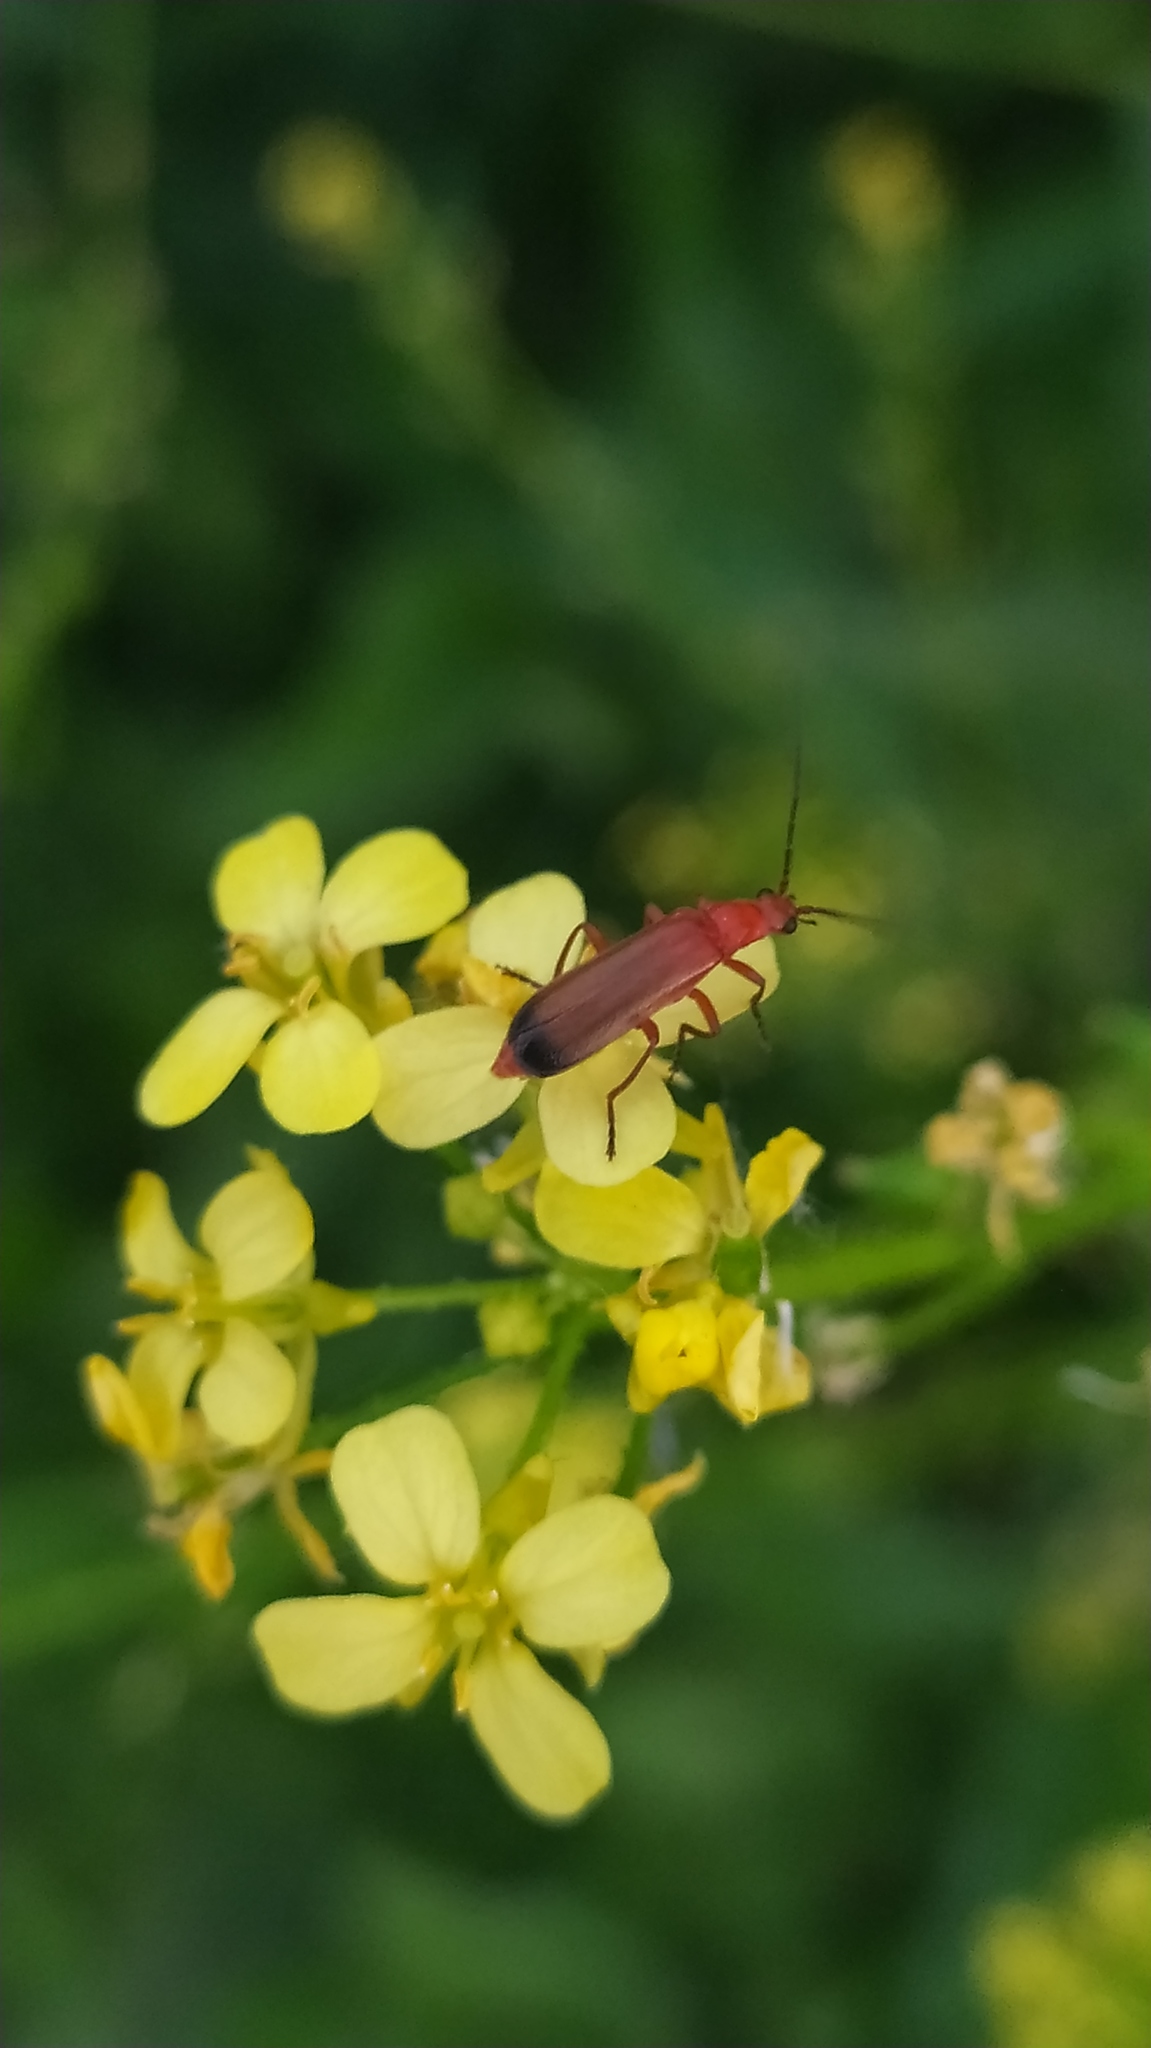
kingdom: Animalia
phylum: Arthropoda
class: Insecta
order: Coleoptera
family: Cantharidae
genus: Rhagonycha
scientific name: Rhagonycha fulva
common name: Common red soldier beetle
